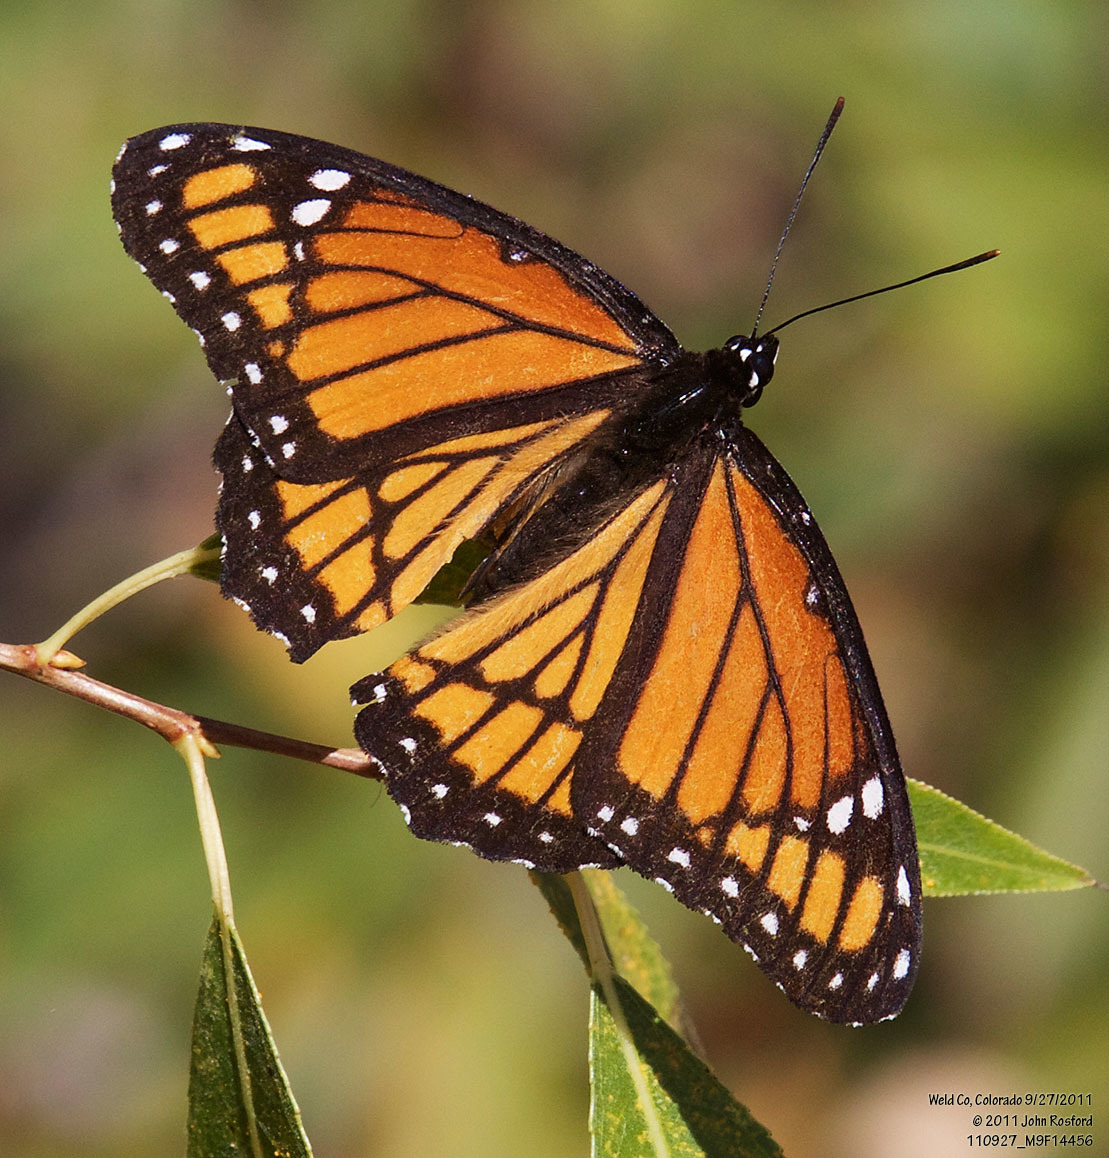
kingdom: Animalia
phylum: Arthropoda
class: Insecta
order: Lepidoptera
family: Nymphalidae
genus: Limenitis
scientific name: Limenitis archippus
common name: Viceroy
